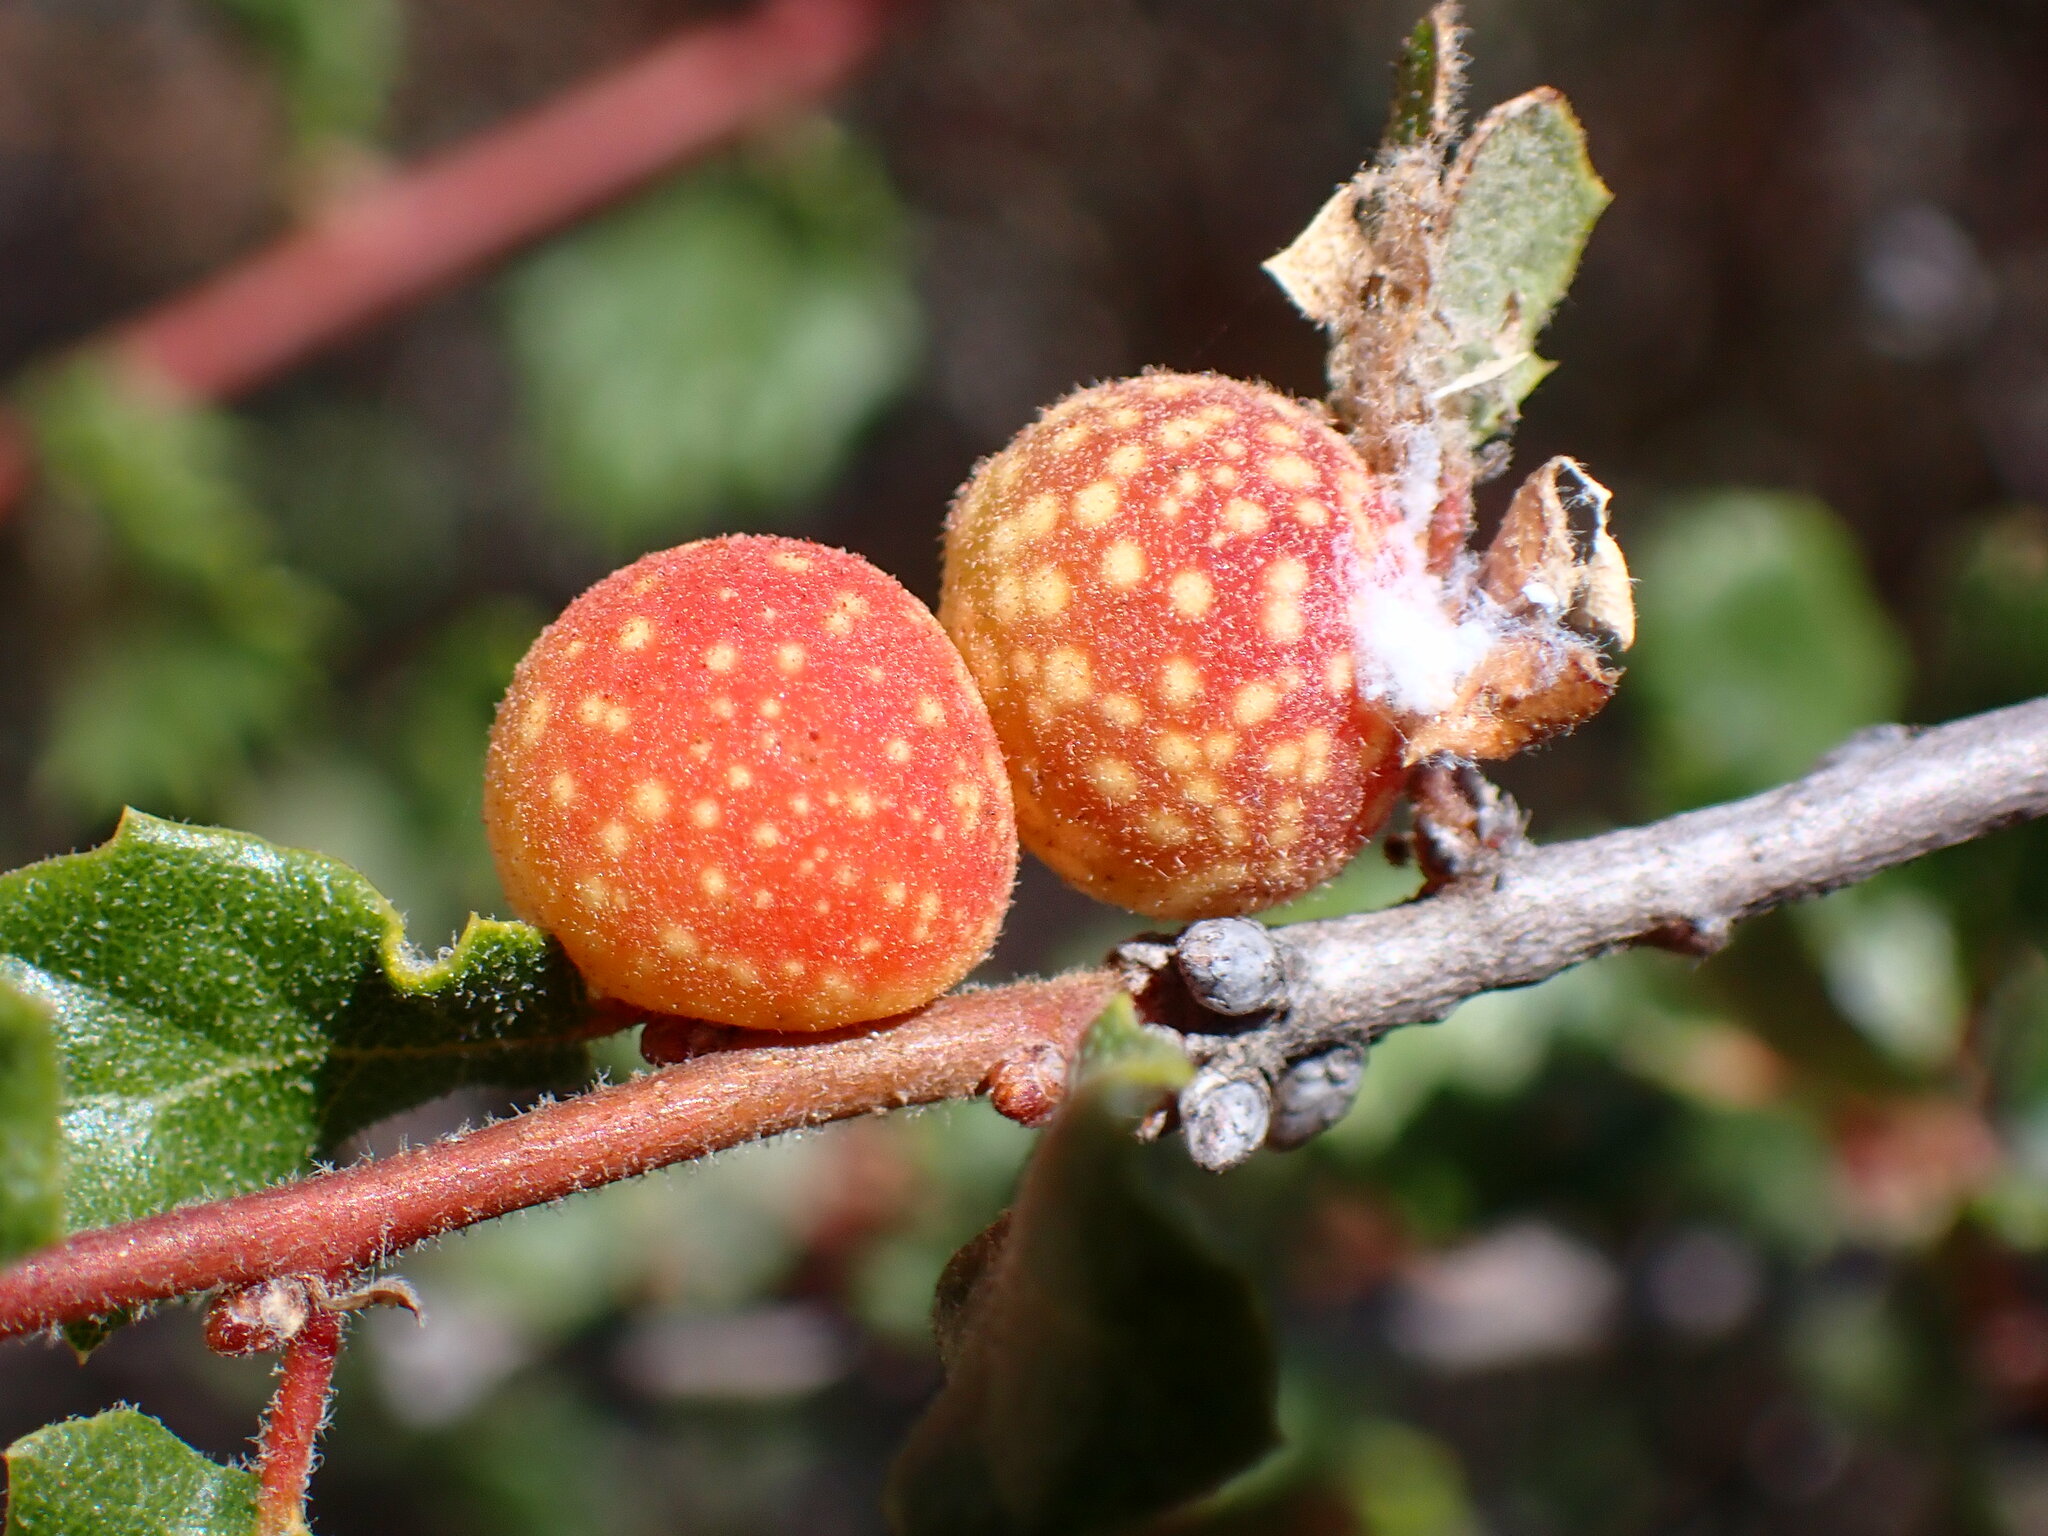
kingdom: Animalia
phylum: Arthropoda
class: Insecta
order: Hymenoptera
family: Cynipidae
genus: Burnettweldia
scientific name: Burnettweldia
